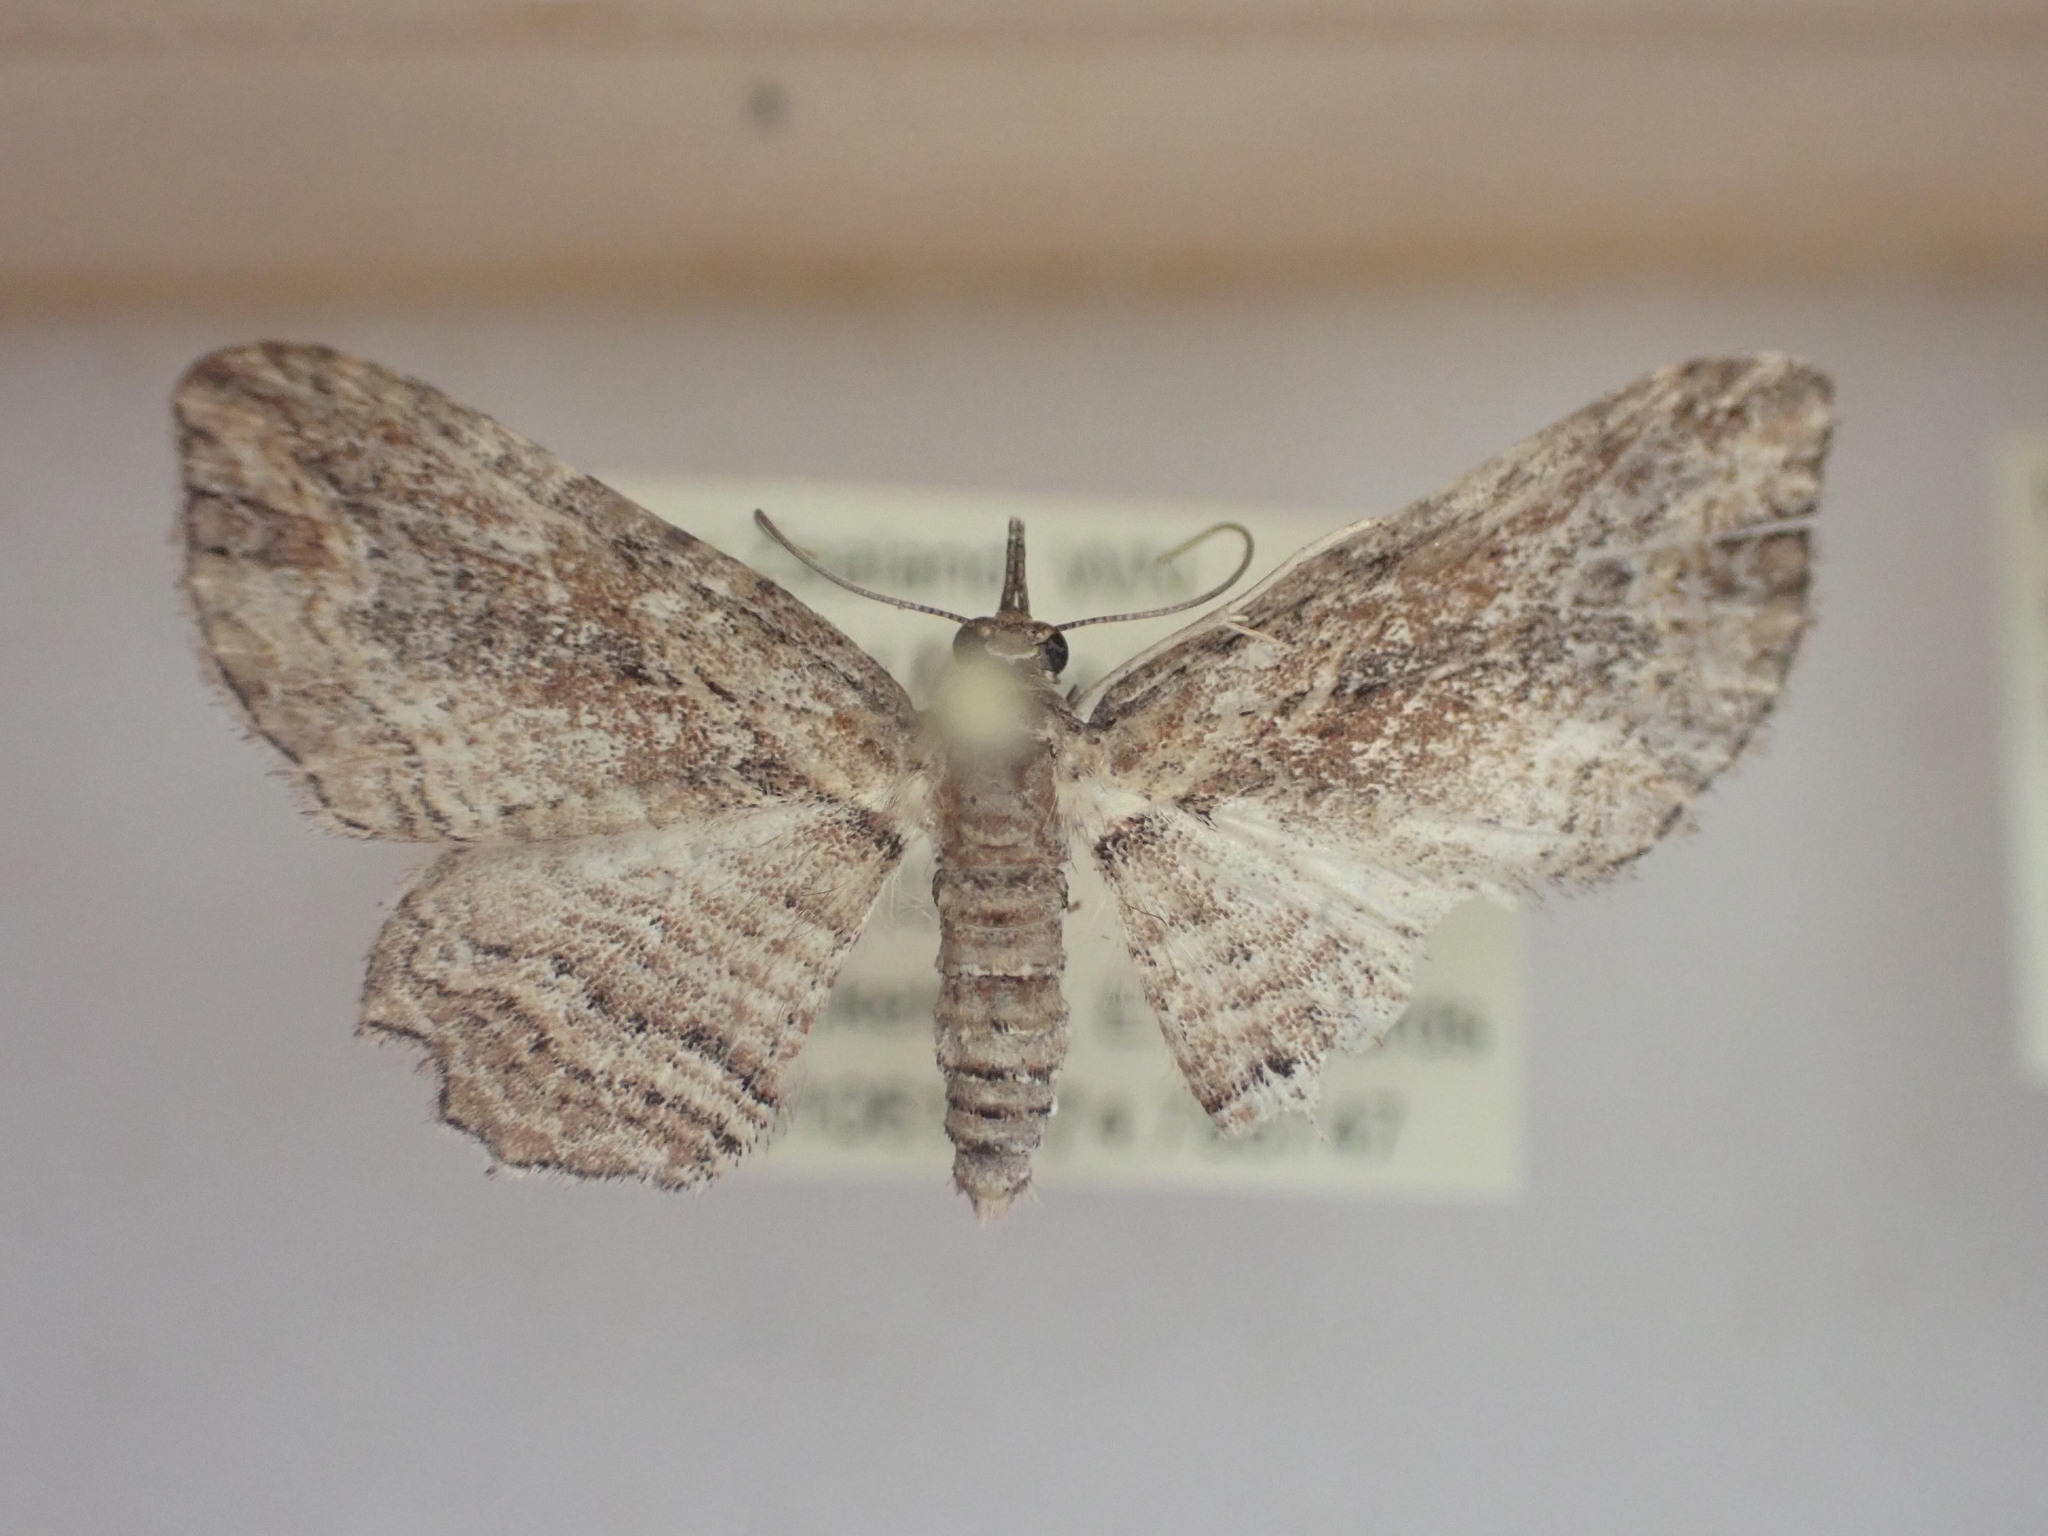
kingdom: Animalia
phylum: Arthropoda
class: Insecta
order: Lepidoptera
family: Geometridae
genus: Chloroclystis
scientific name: Chloroclystis filata
